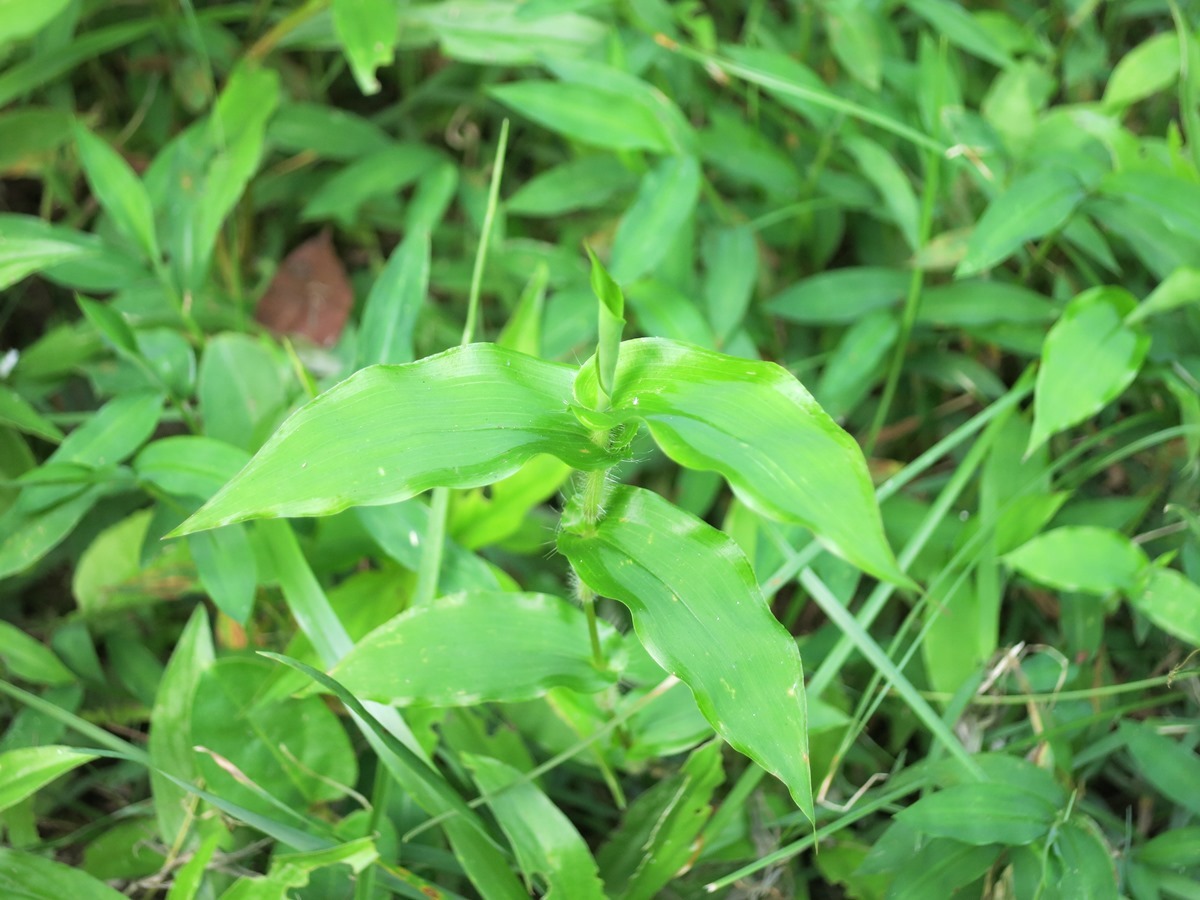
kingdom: Plantae
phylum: Tracheophyta
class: Liliopsida
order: Poales
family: Poaceae
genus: Arthraxon
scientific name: Arthraxon hispidus
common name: Small carpgrass
